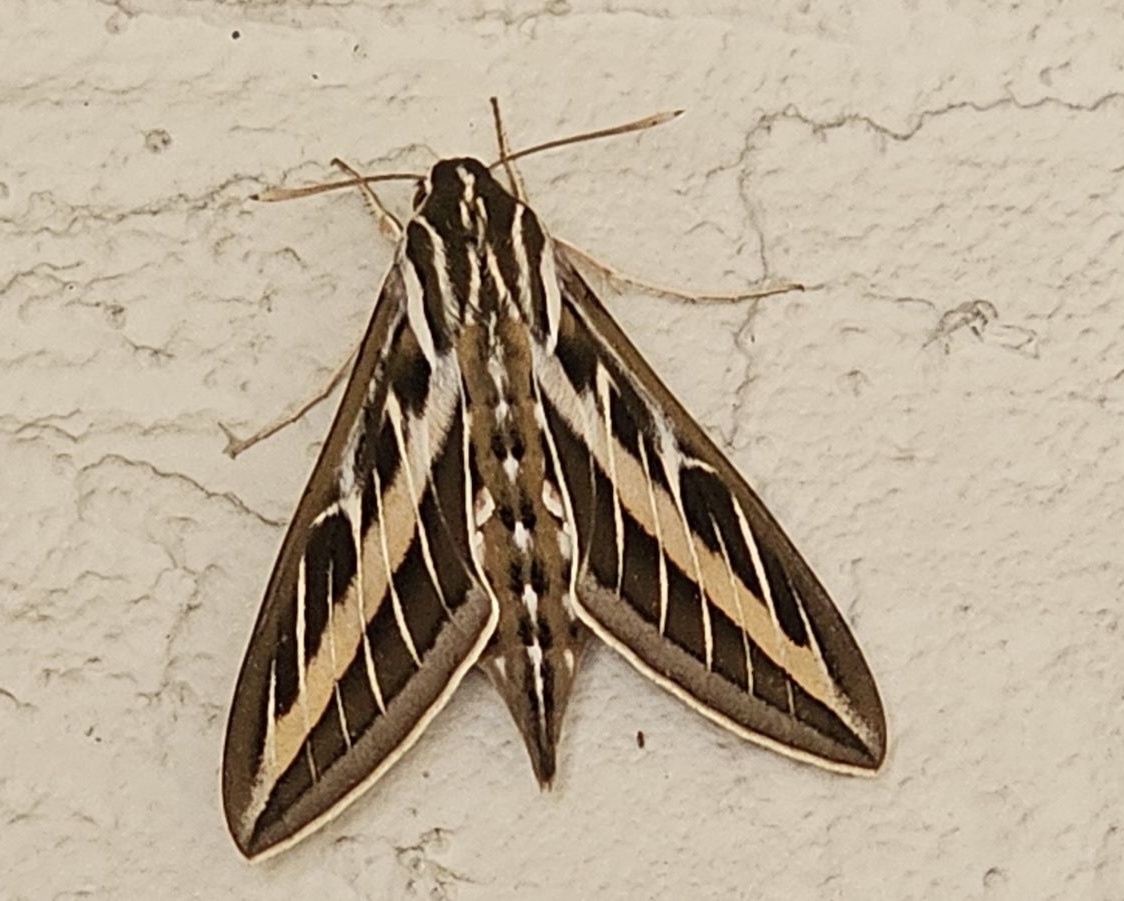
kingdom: Animalia
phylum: Arthropoda
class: Insecta
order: Lepidoptera
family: Sphingidae
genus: Hyles
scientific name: Hyles lineata
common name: White-lined sphinx
